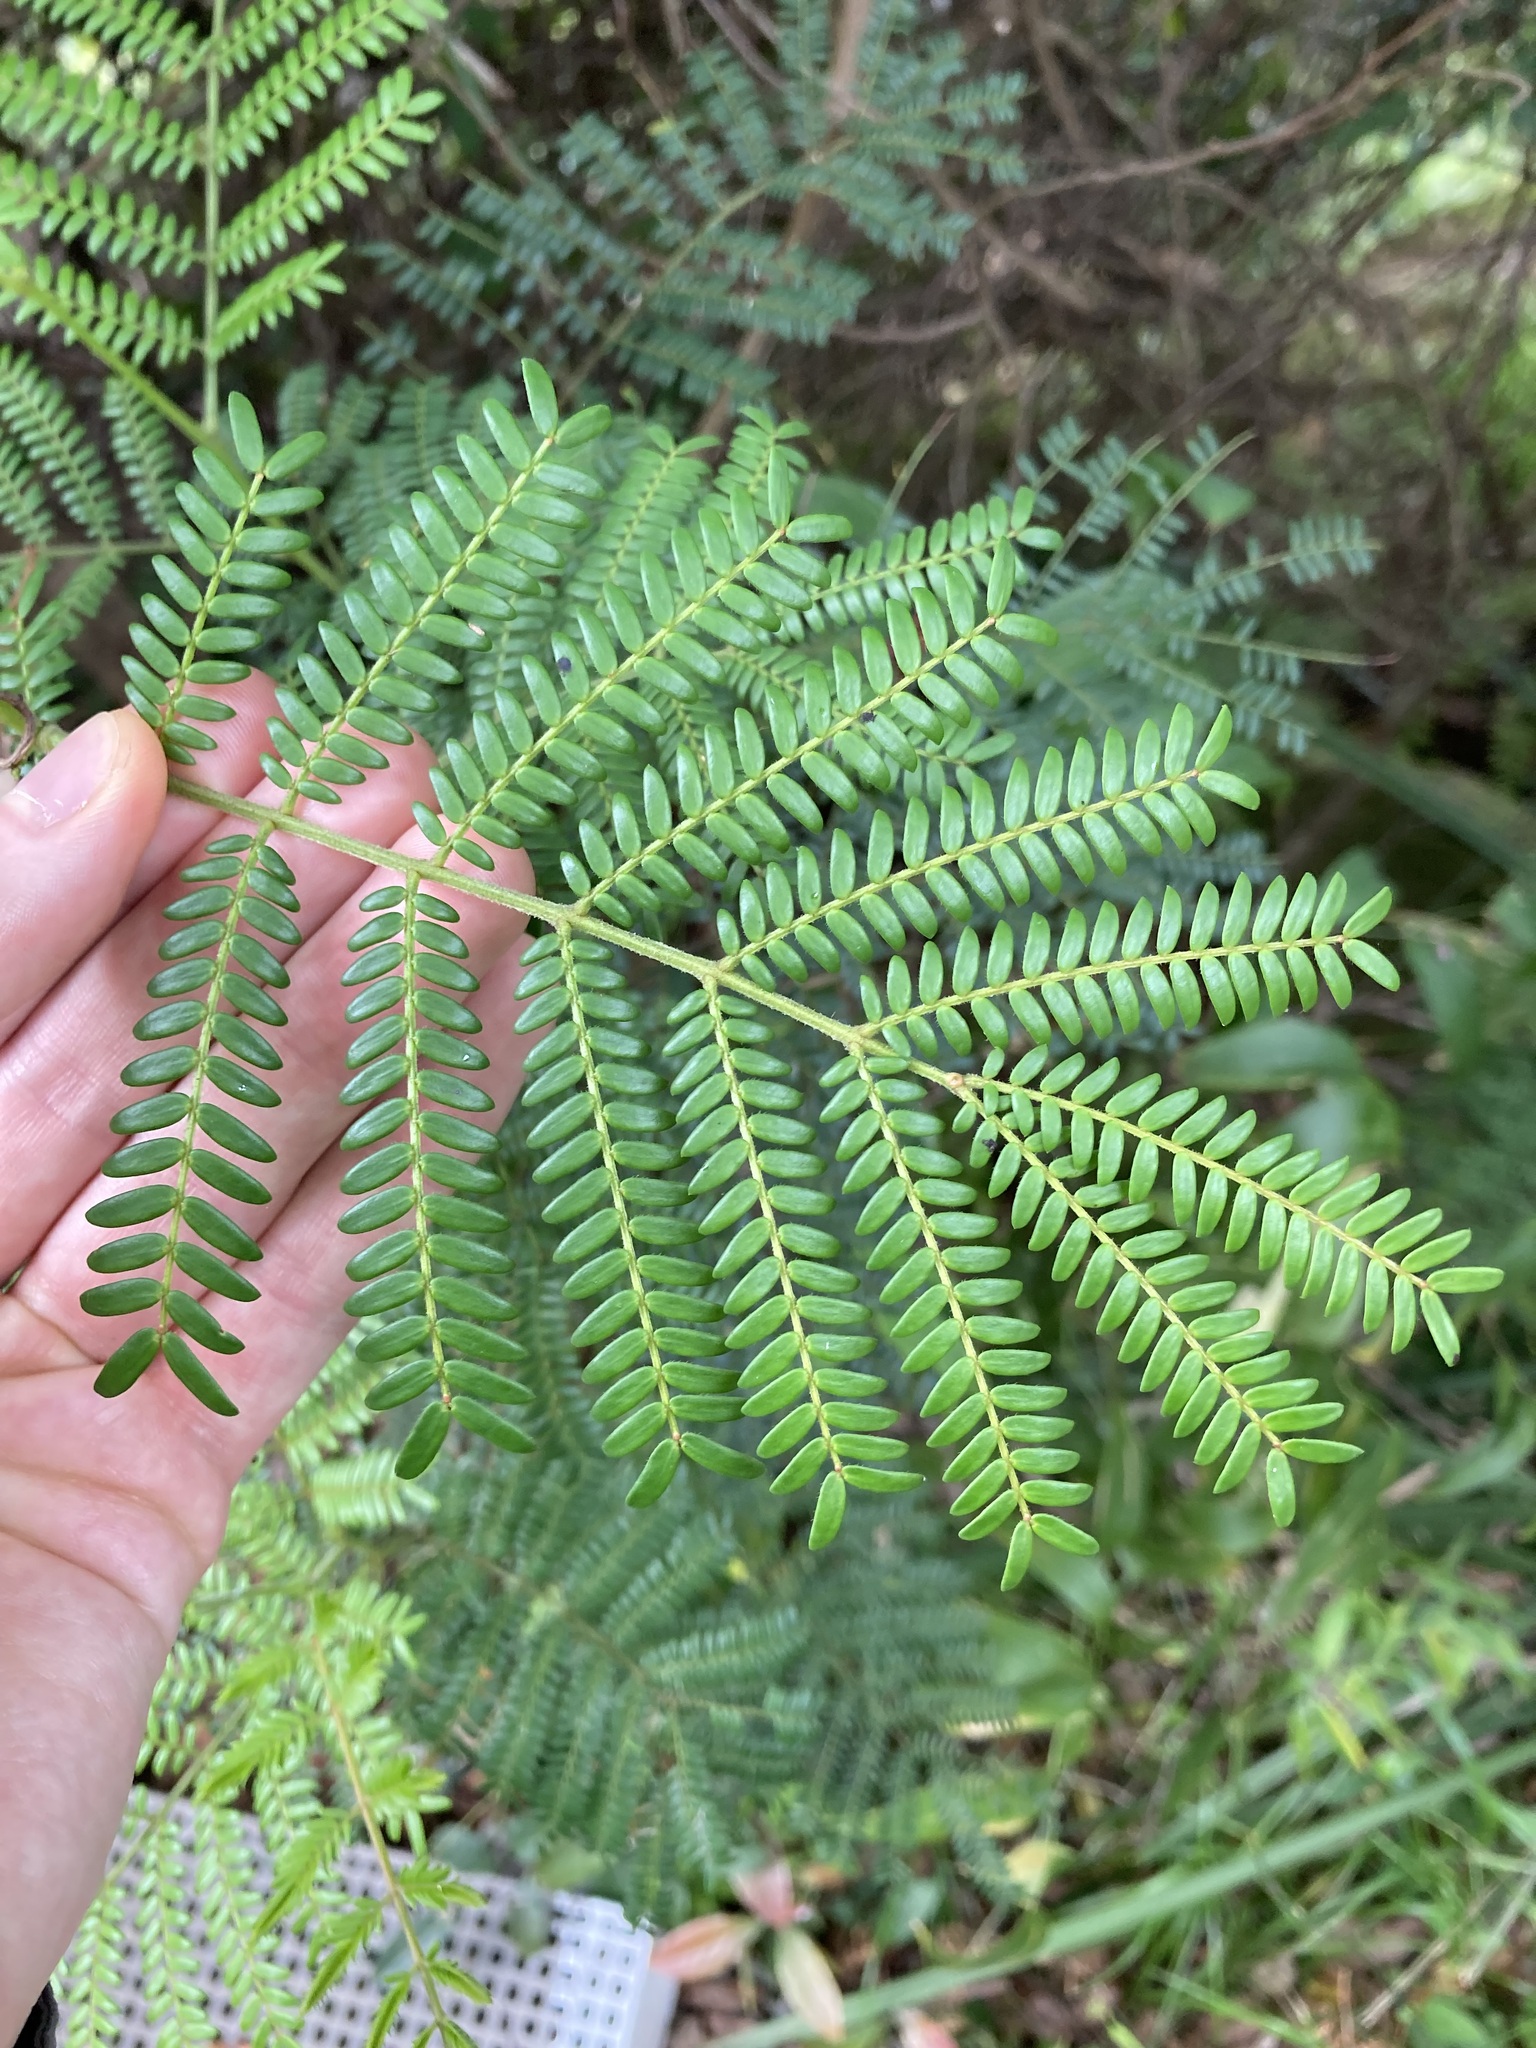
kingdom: Plantae
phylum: Tracheophyta
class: Magnoliopsida
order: Fabales
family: Fabaceae
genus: Acacia
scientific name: Acacia terminalis
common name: Cedar wattle
